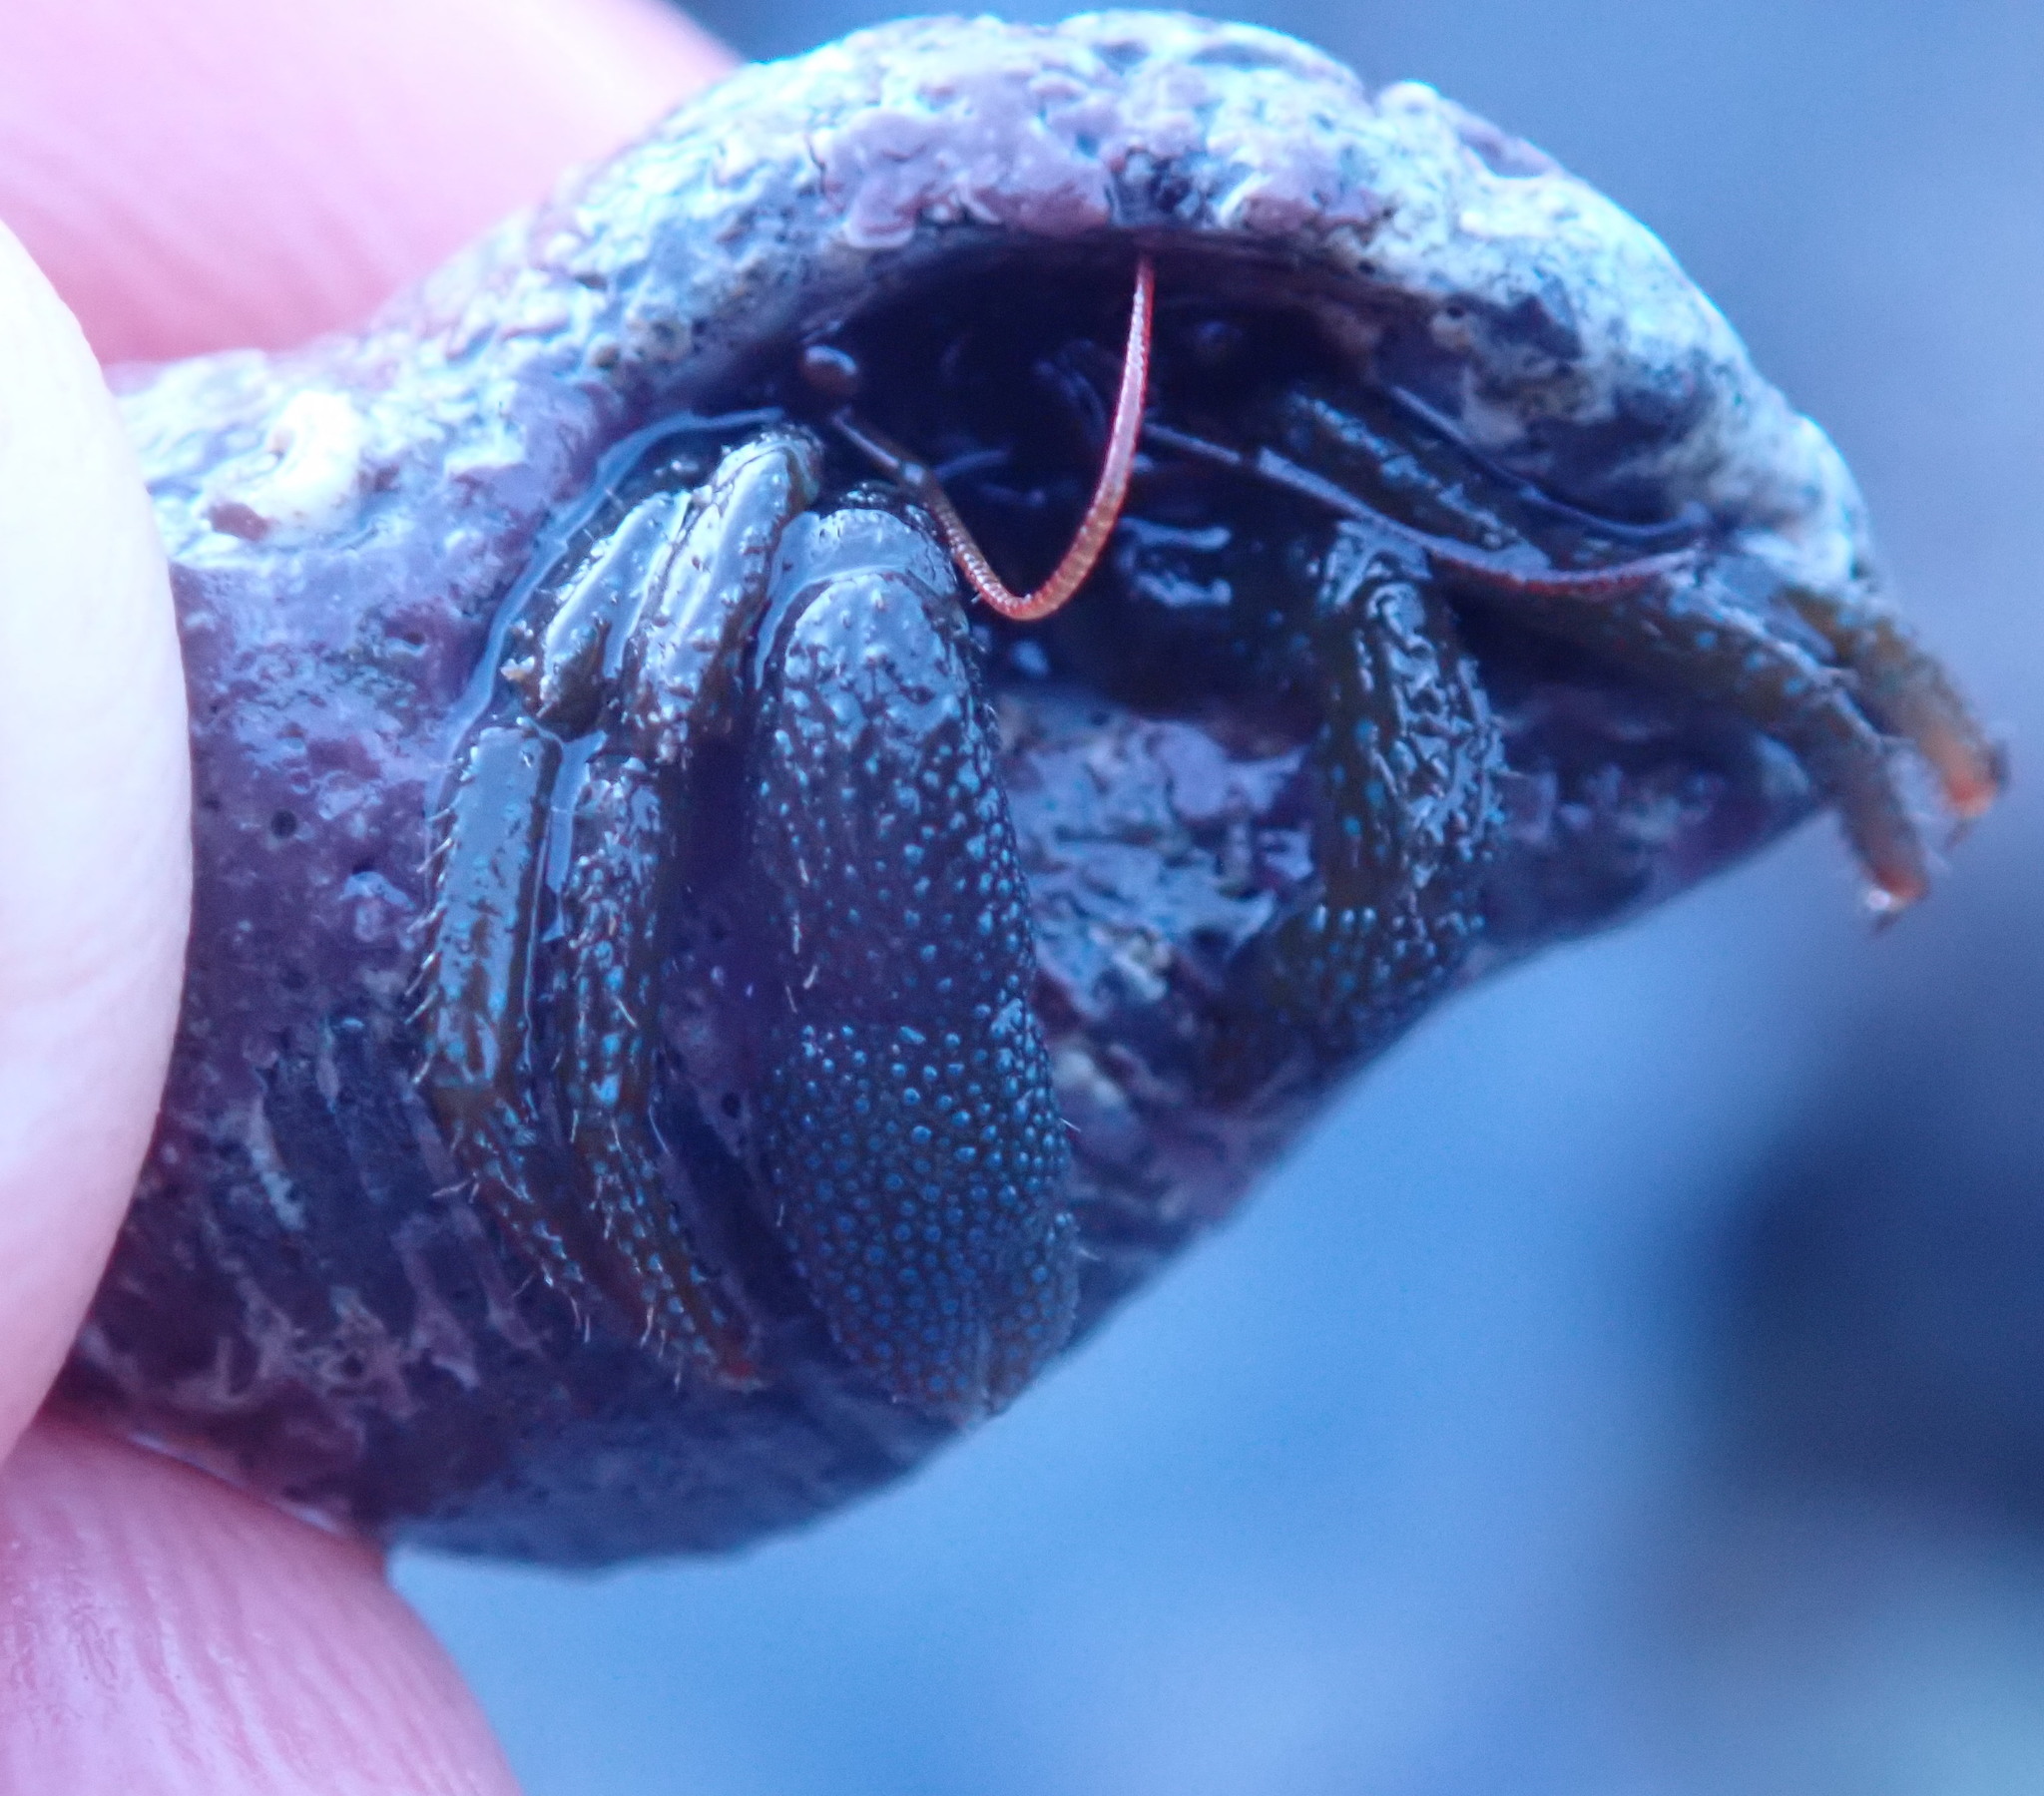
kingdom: Animalia
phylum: Arthropoda
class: Malacostraca
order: Decapoda
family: Paguridae
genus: Pagurus
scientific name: Pagurus granosimanus
